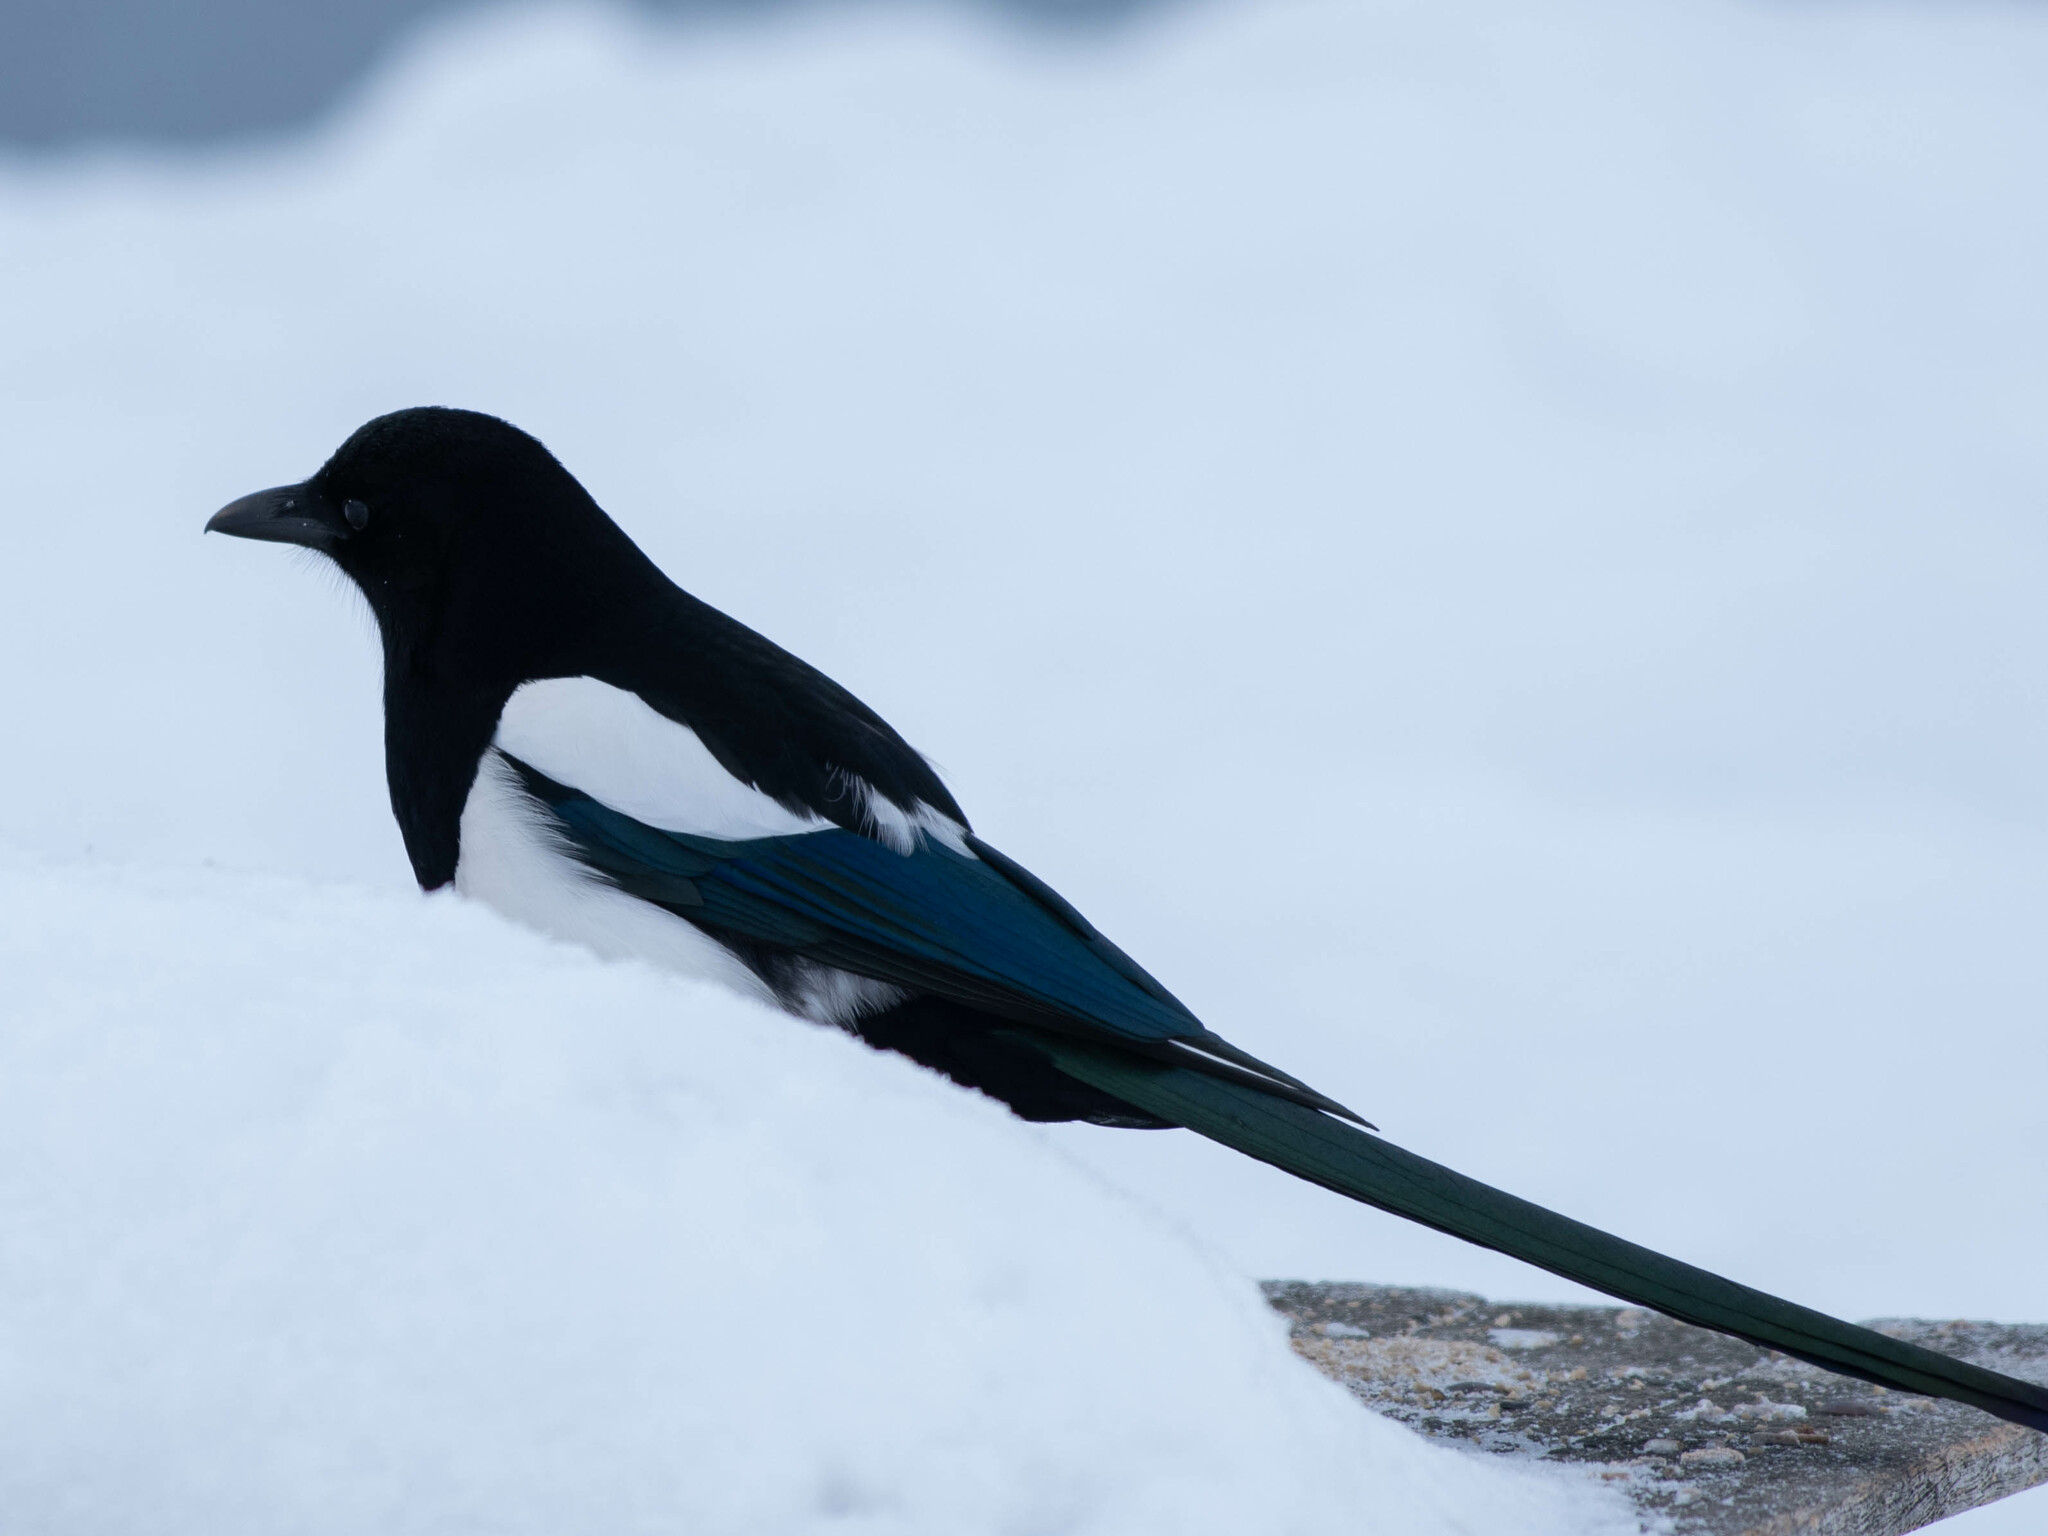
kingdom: Animalia
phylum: Chordata
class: Aves
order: Passeriformes
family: Corvidae
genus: Pica
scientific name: Pica hudsonia
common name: Black-billed magpie
